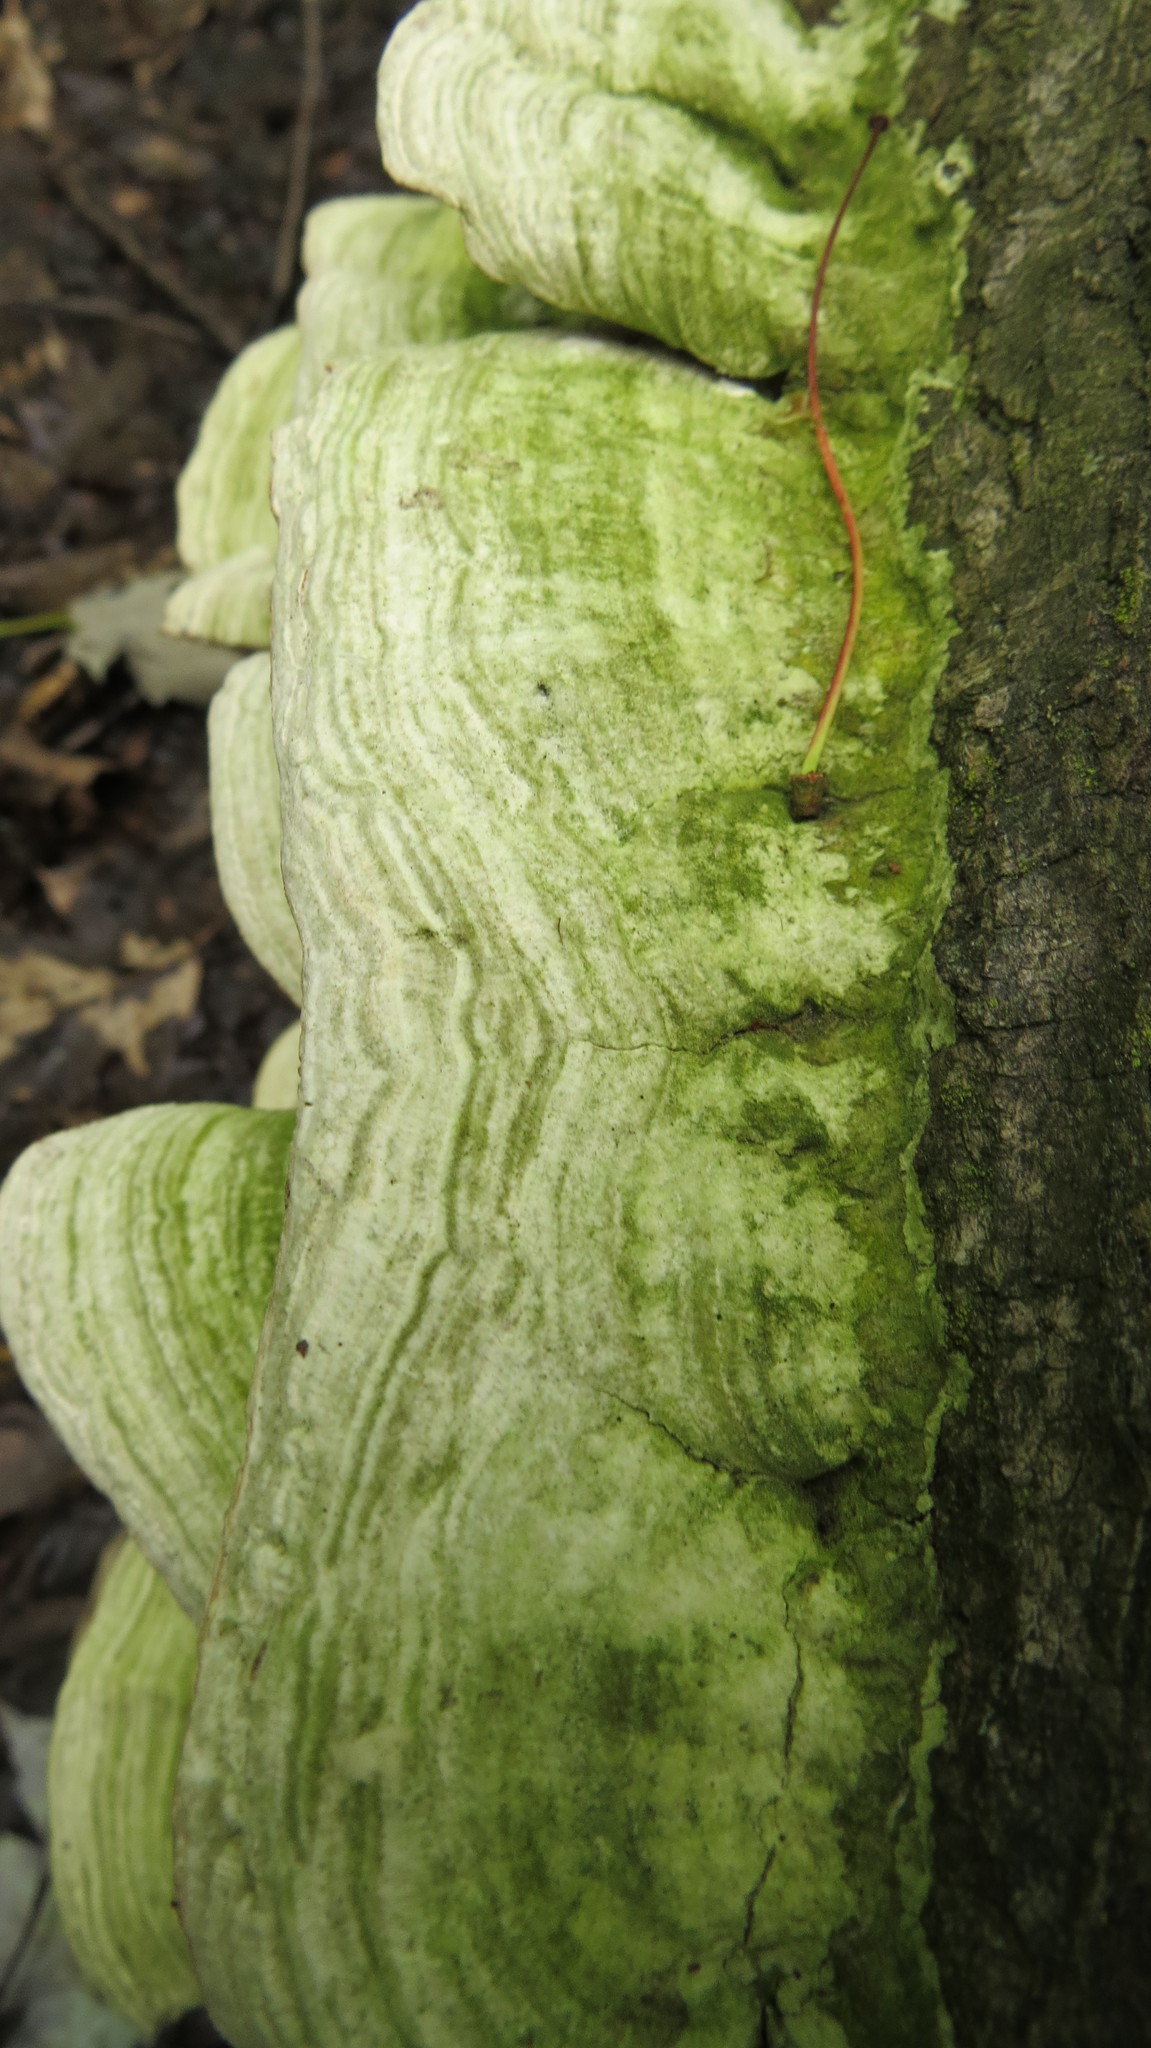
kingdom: Fungi
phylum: Basidiomycota
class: Agaricomycetes
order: Polyporales
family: Cerrenaceae
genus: Cerrena
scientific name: Cerrena unicolor
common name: Mossy maze polypore
